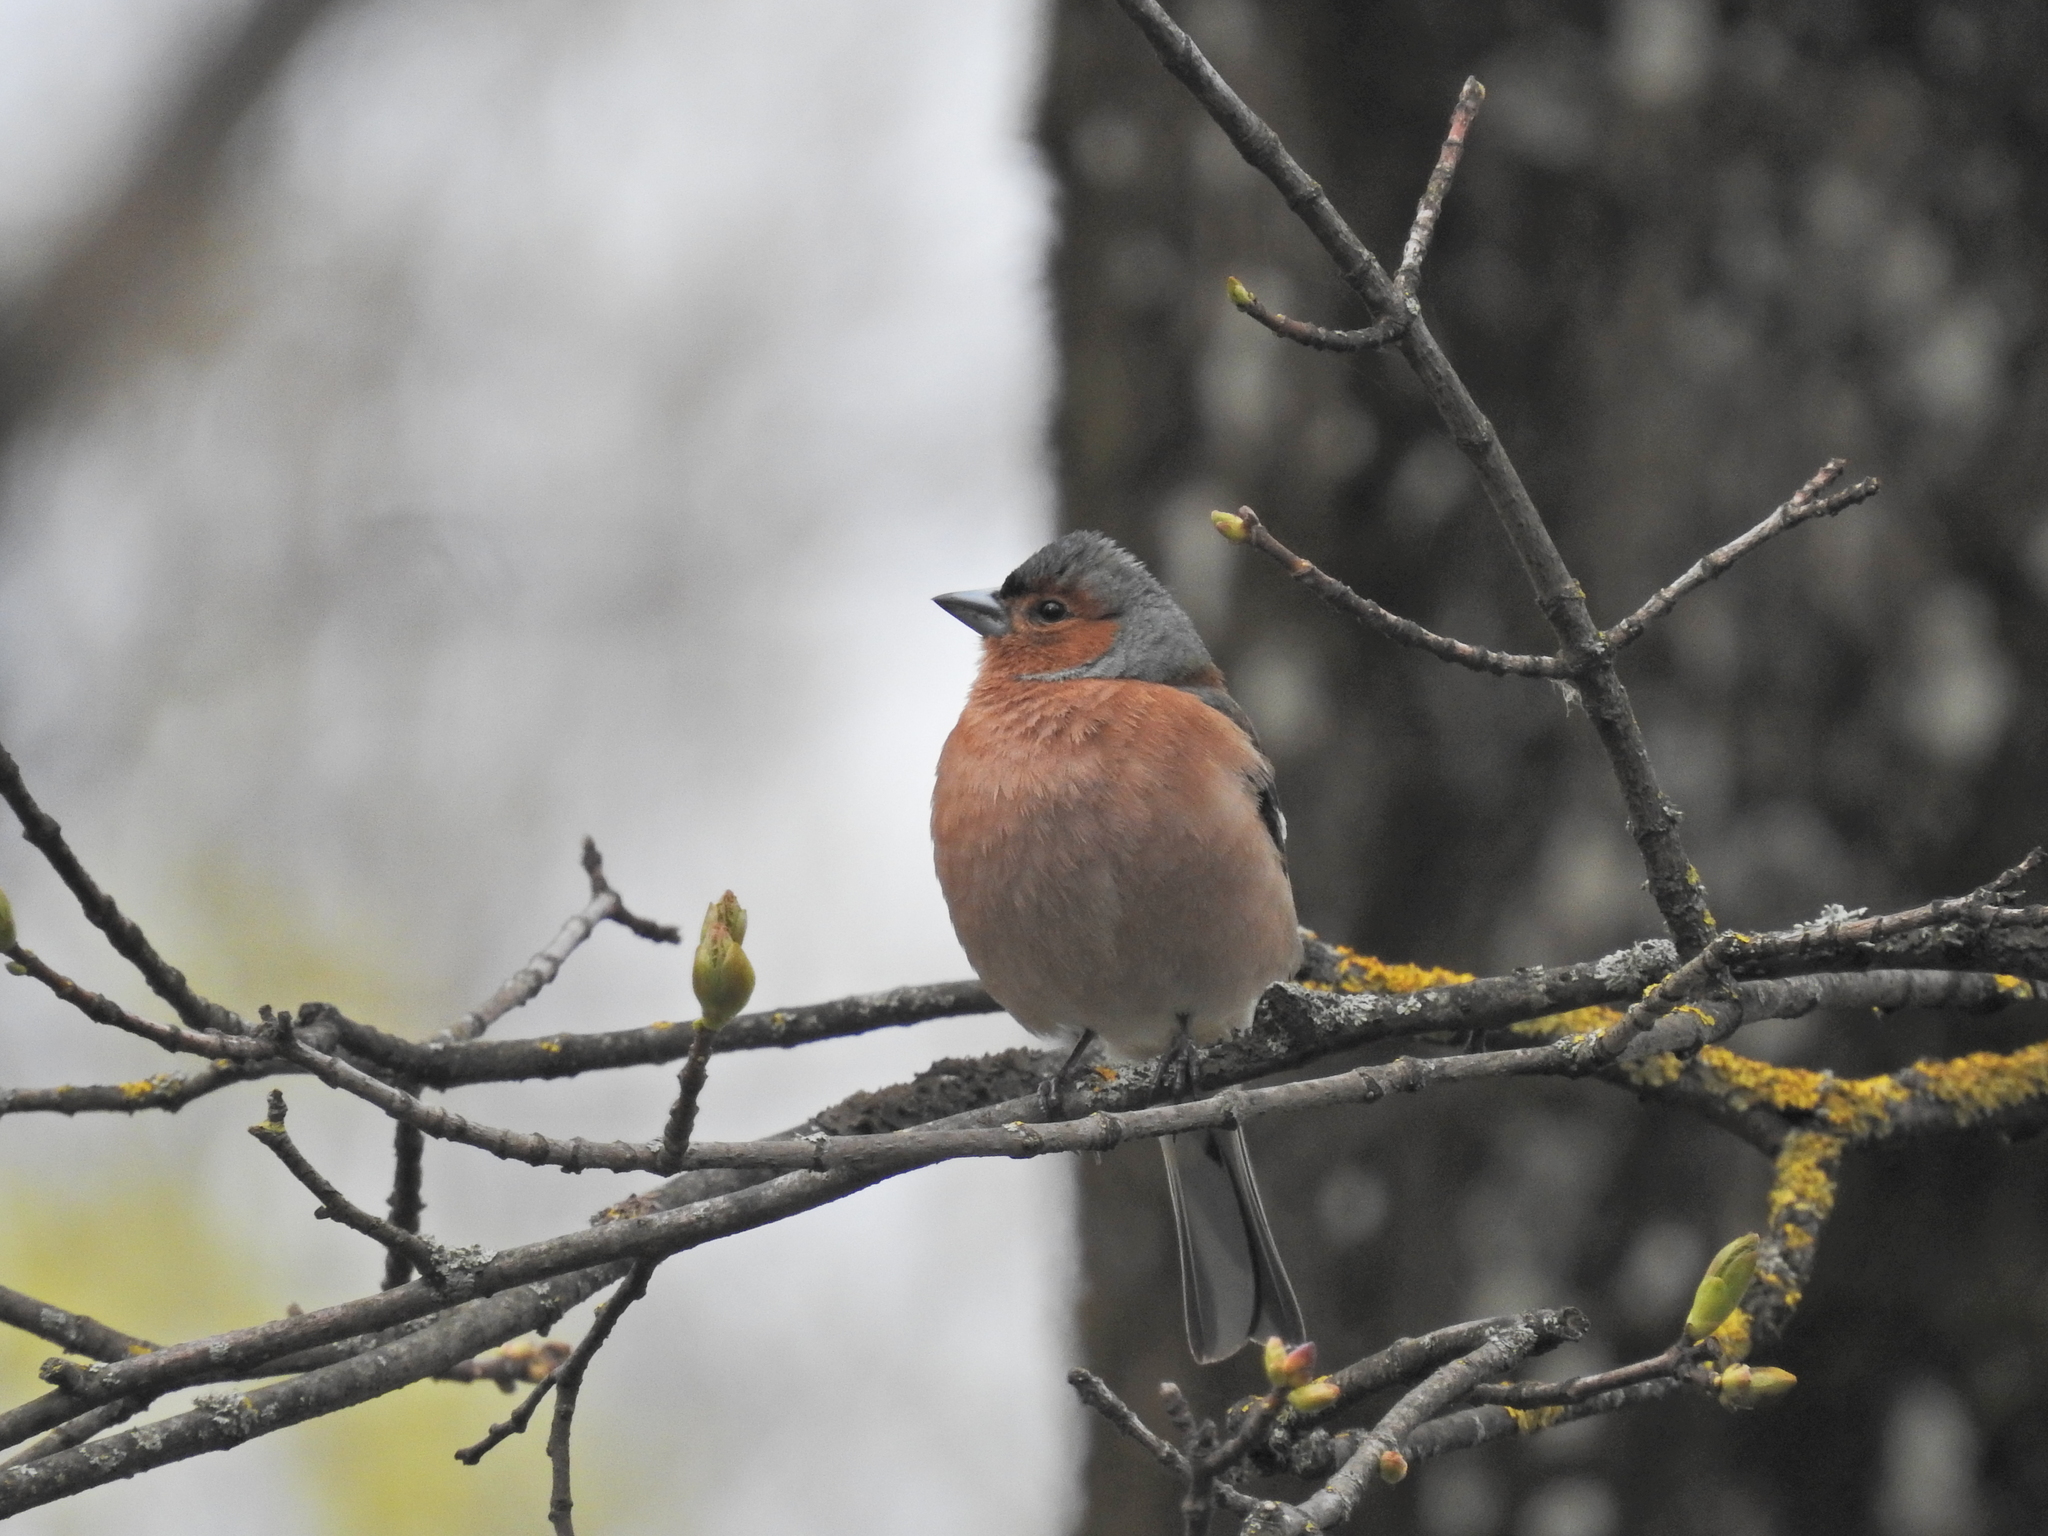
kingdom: Animalia
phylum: Chordata
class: Aves
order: Passeriformes
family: Fringillidae
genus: Fringilla
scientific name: Fringilla coelebs
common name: Common chaffinch
